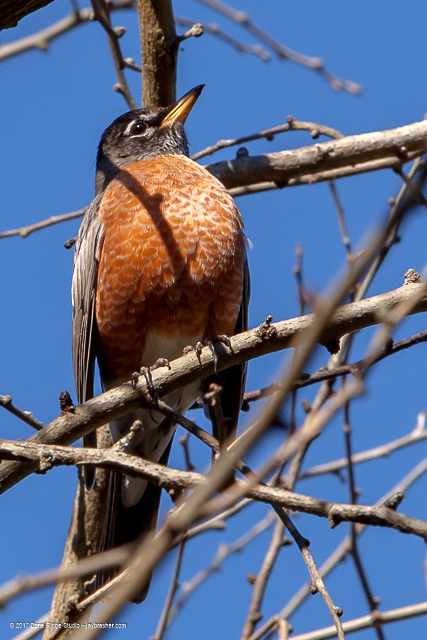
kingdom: Animalia
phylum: Chordata
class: Aves
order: Passeriformes
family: Turdidae
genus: Turdus
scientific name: Turdus migratorius
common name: American robin
